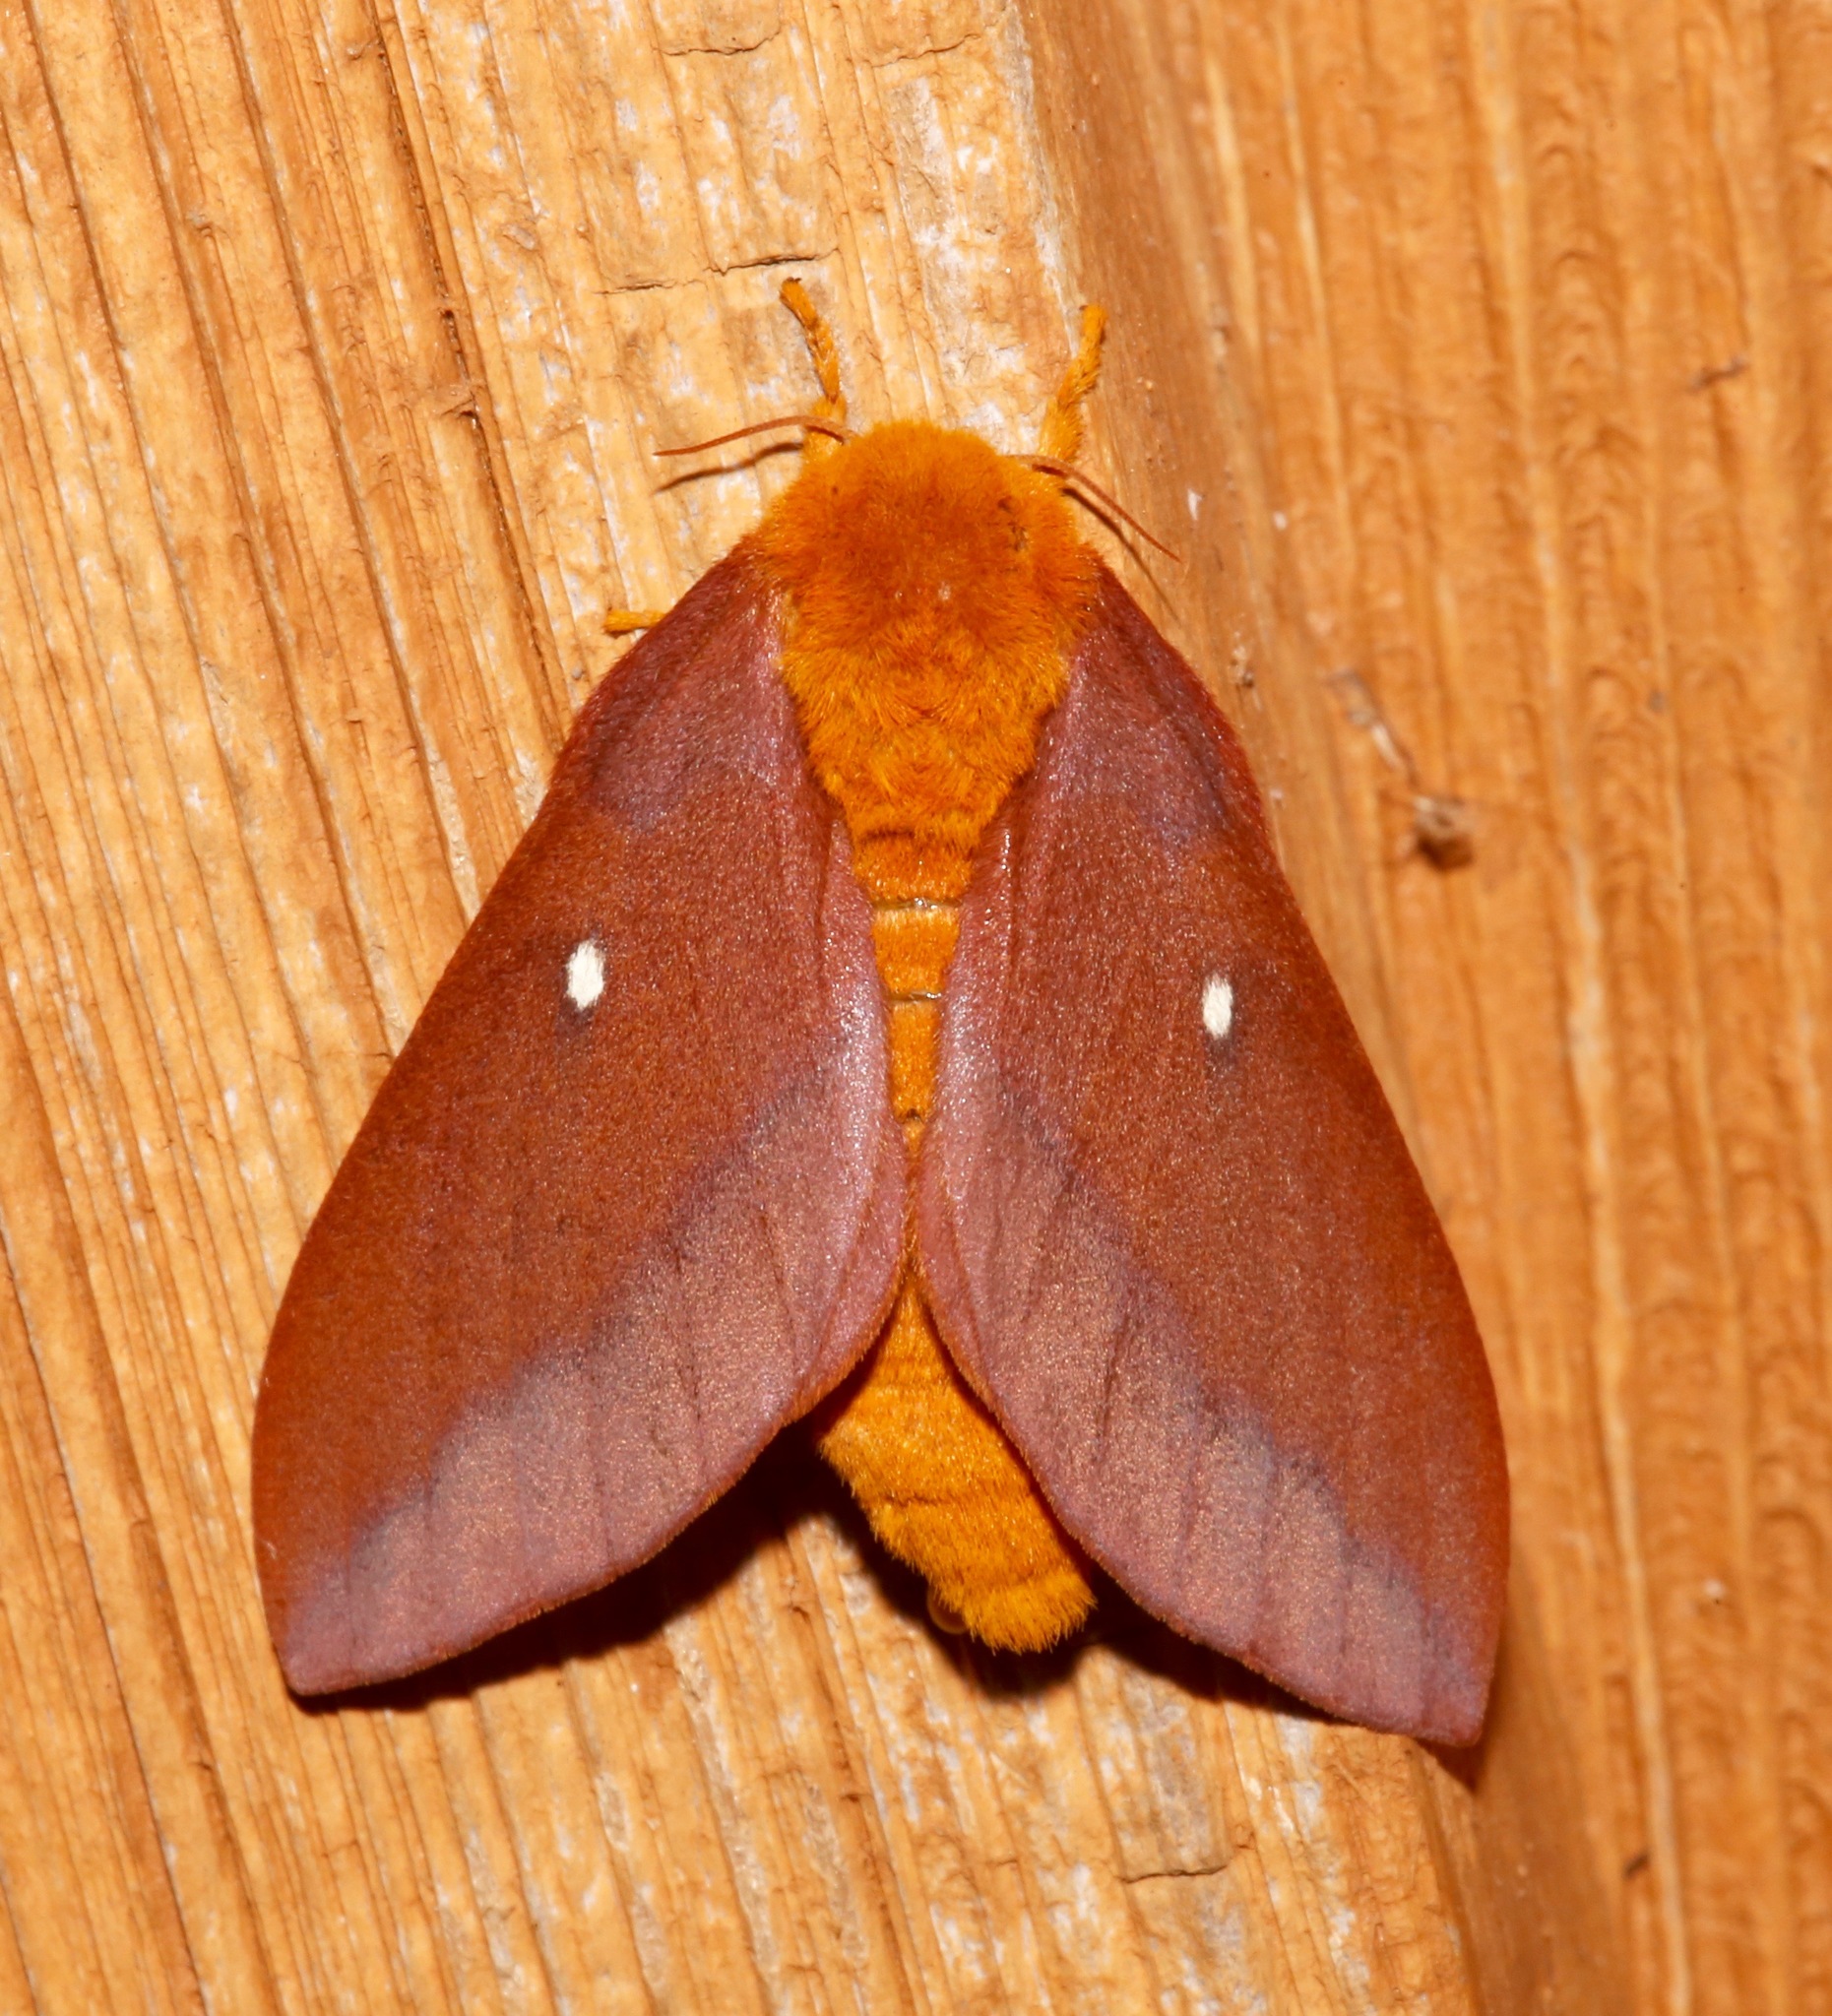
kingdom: Animalia
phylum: Arthropoda
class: Insecta
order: Lepidoptera
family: Saturniidae
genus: Anisota
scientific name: Anisota virginiensis
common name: Pink striped oakworm moth
